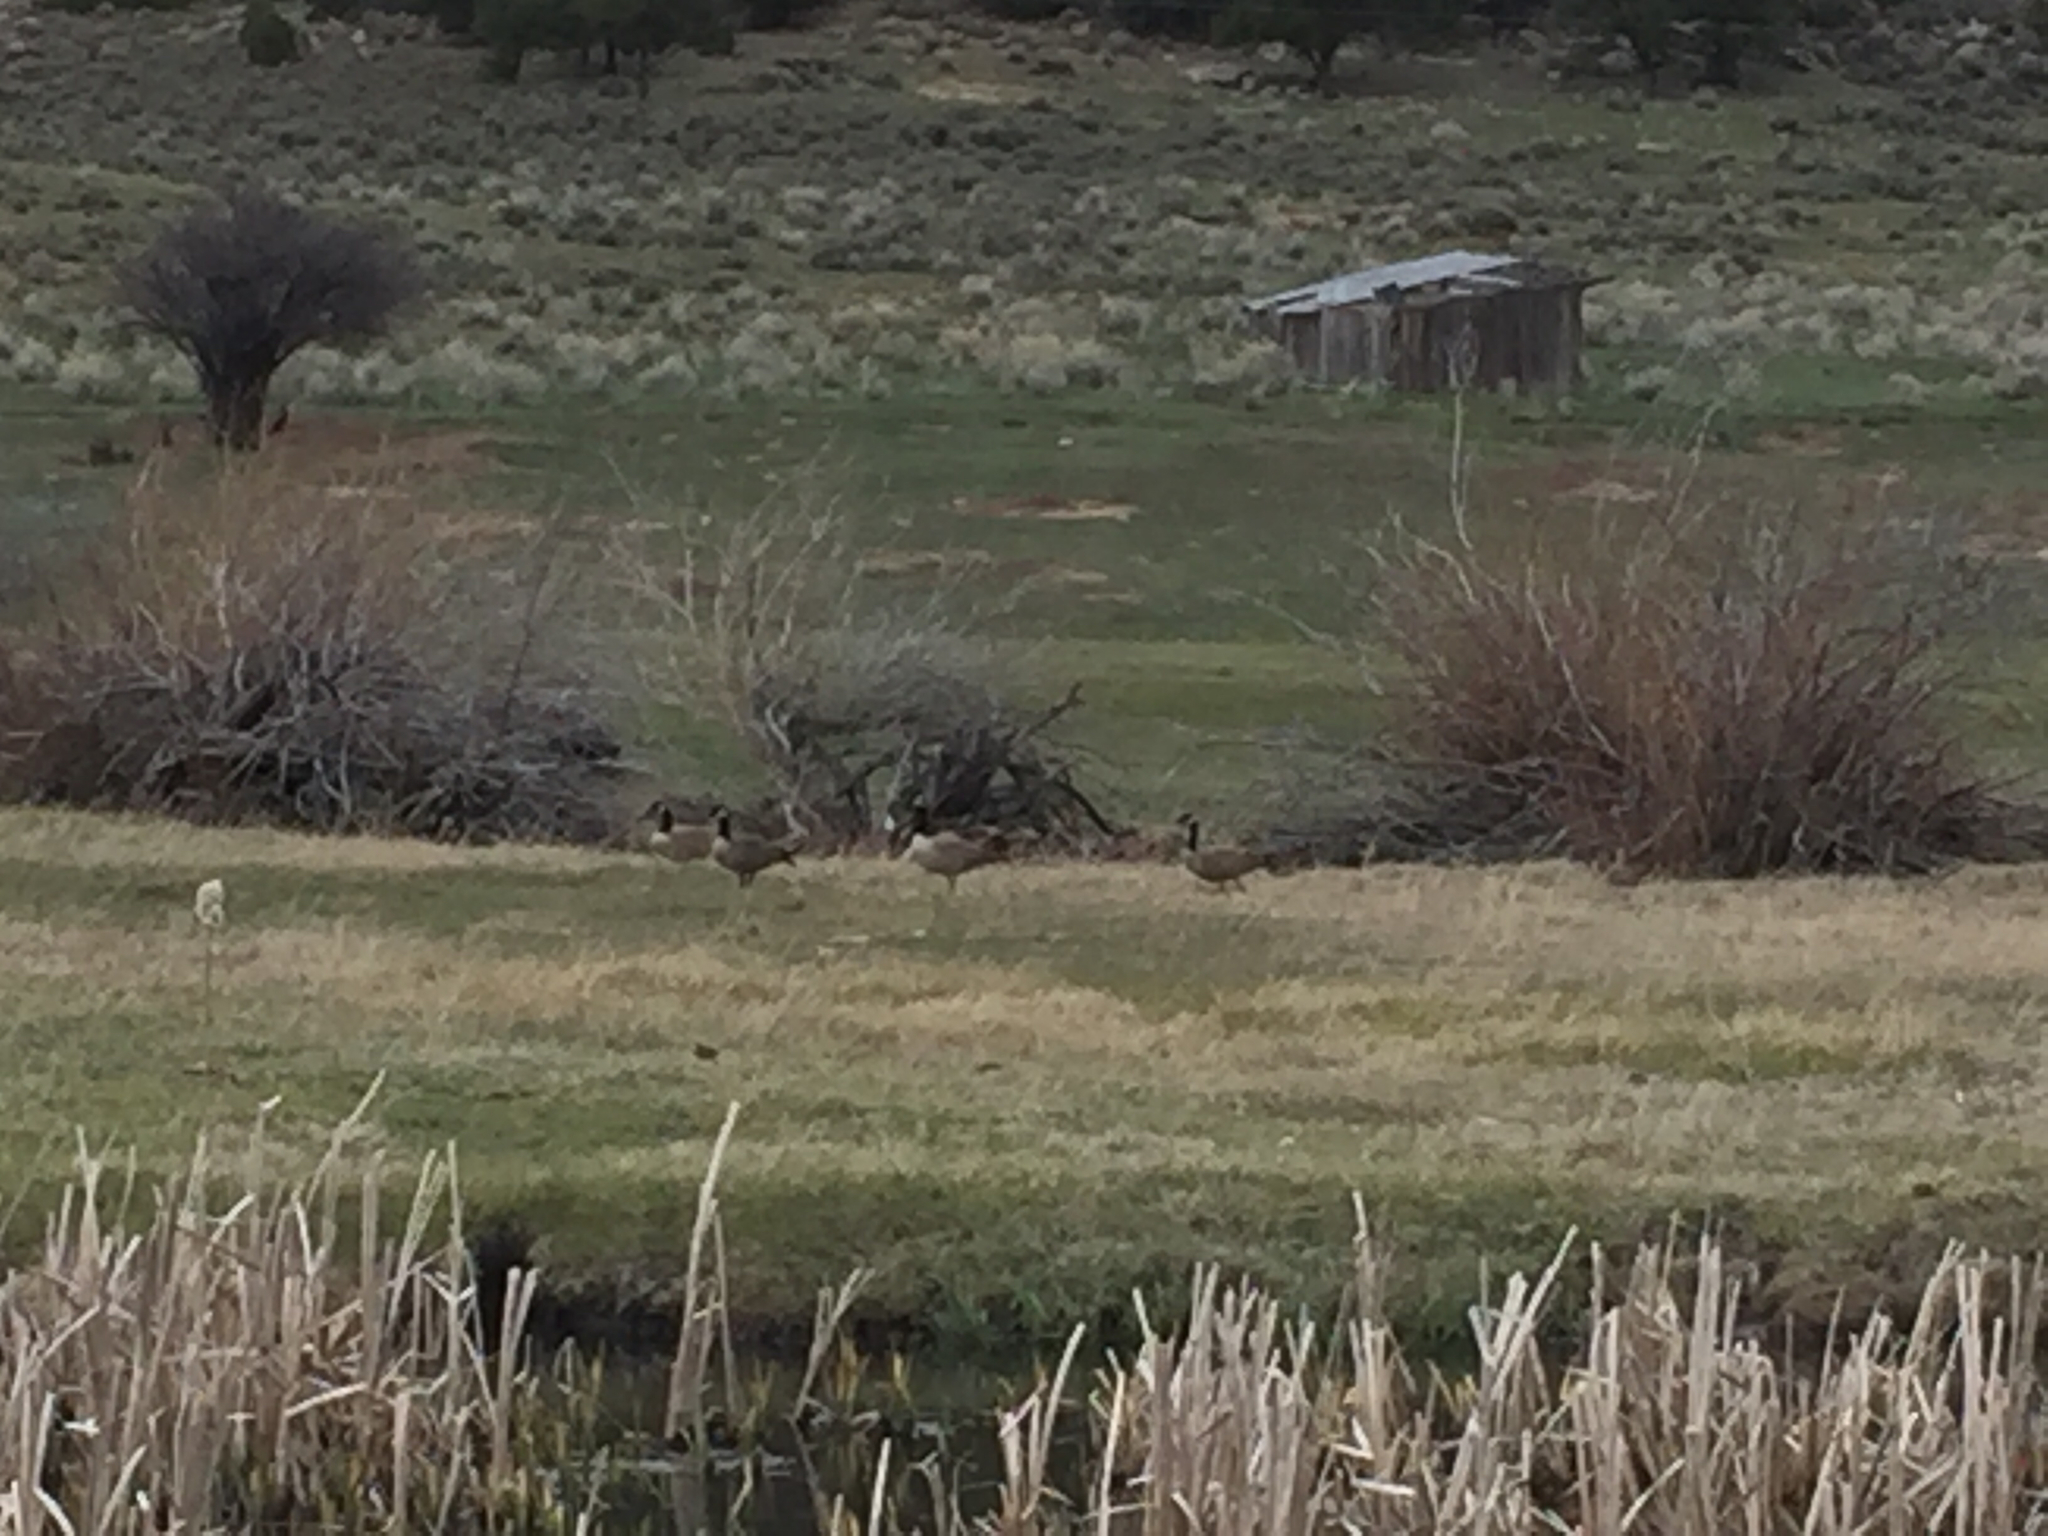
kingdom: Animalia
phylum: Chordata
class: Aves
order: Anseriformes
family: Anatidae
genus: Branta
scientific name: Branta canadensis
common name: Canada goose
